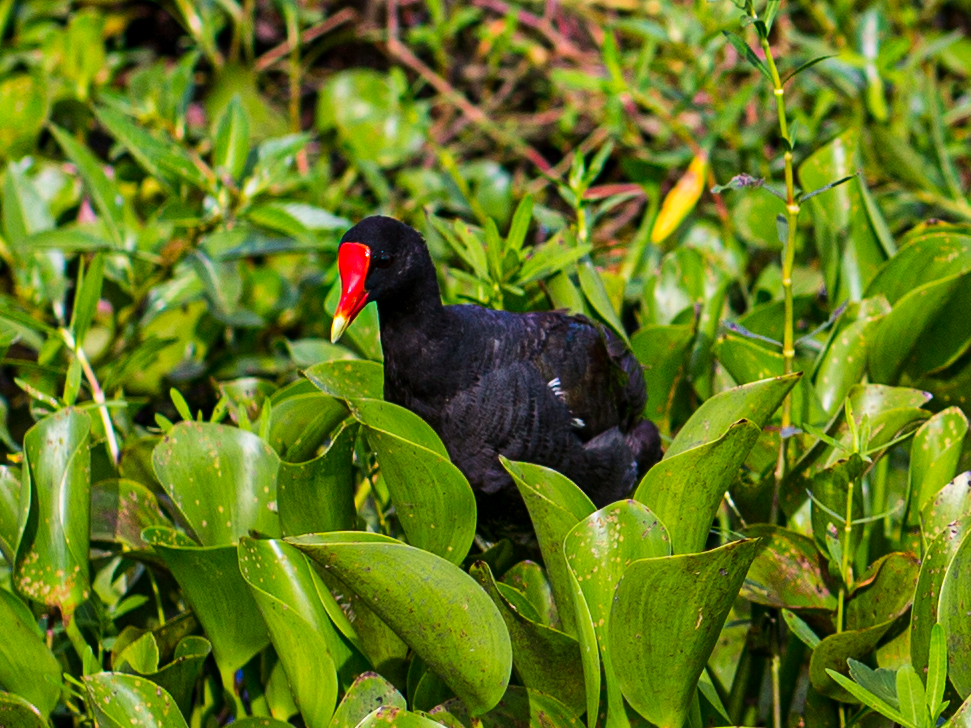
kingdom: Animalia
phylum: Chordata
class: Aves
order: Gruiformes
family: Rallidae
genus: Gallinula
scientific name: Gallinula chloropus
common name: Common moorhen
